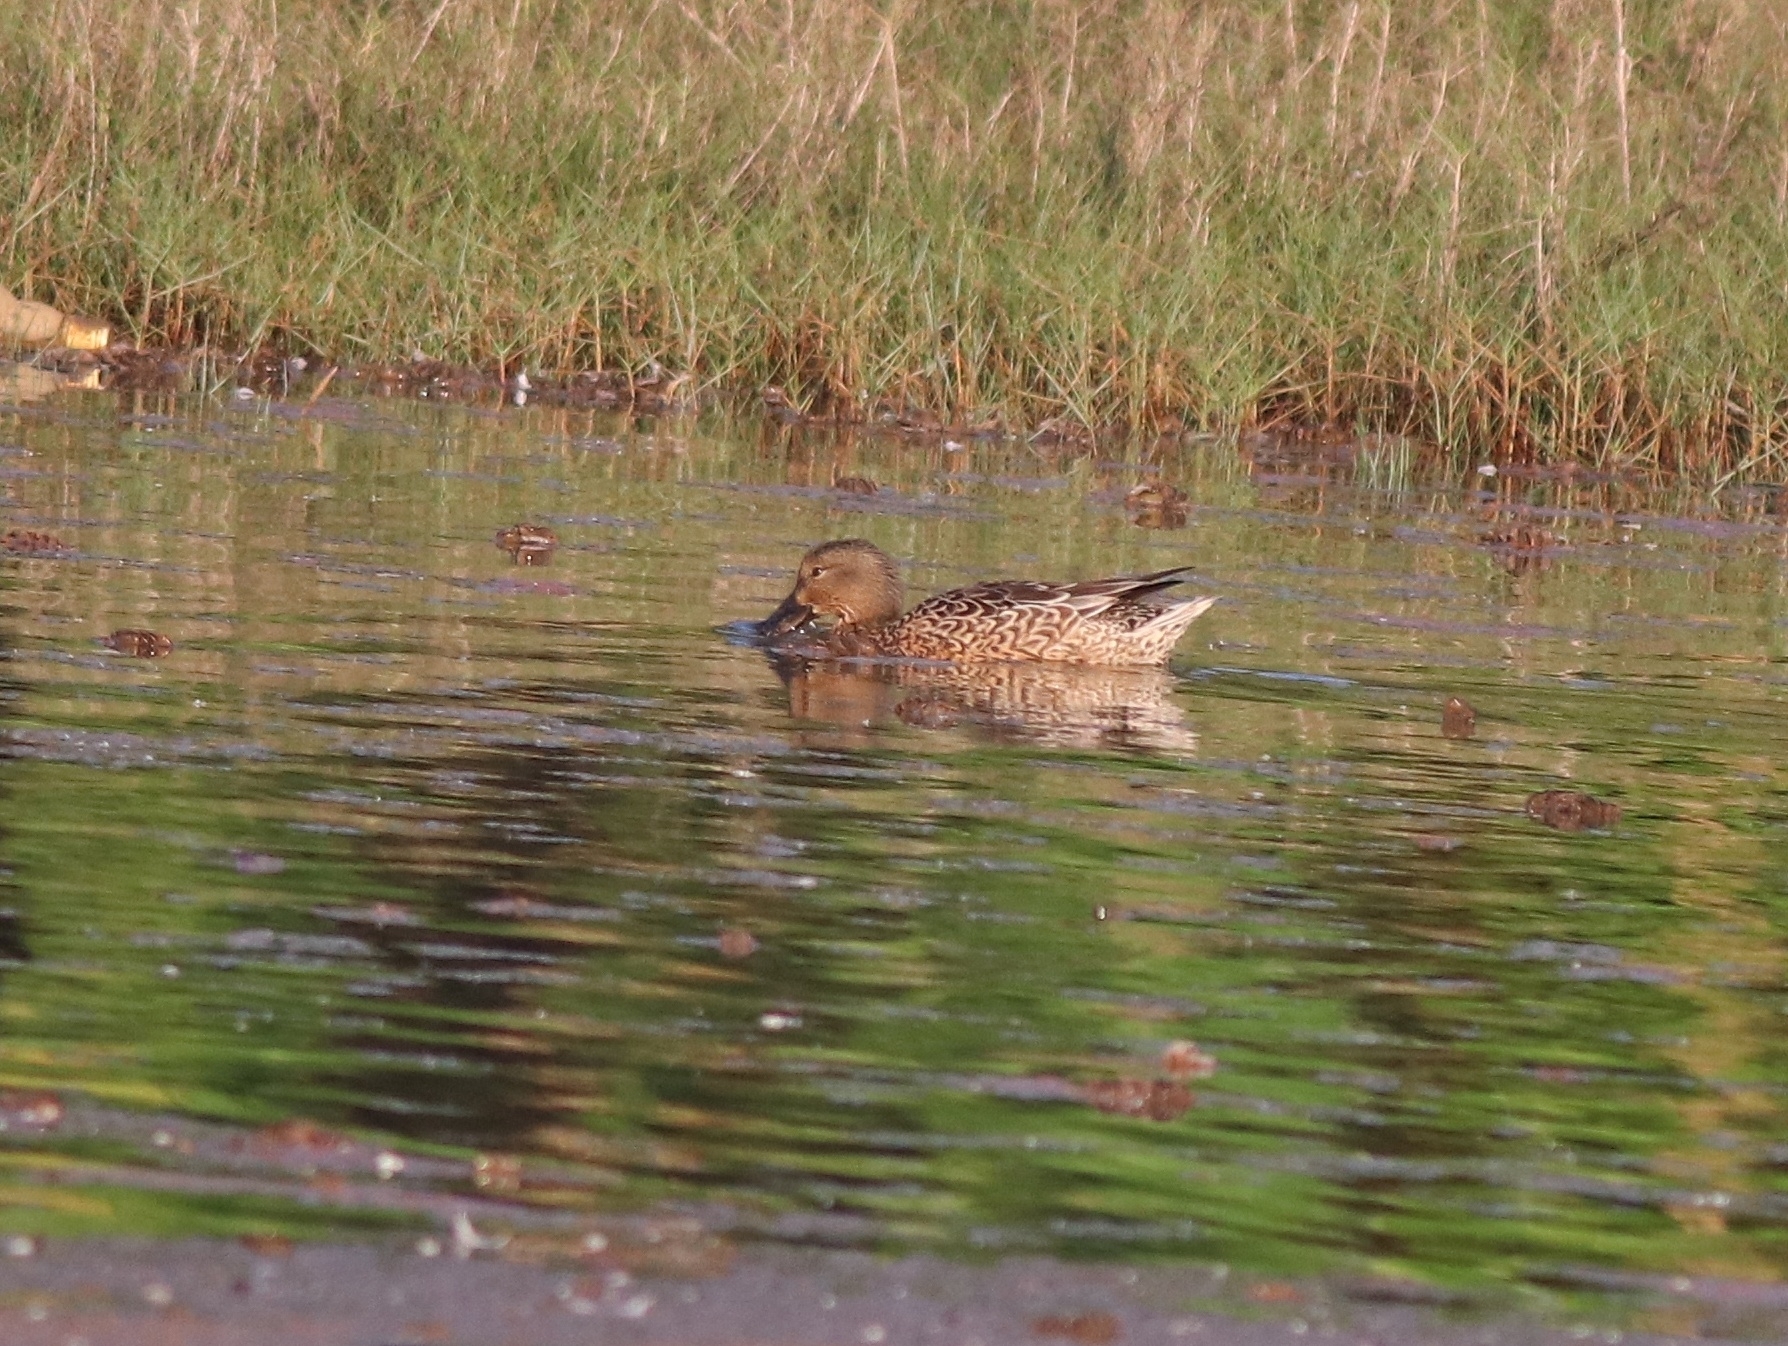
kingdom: Animalia
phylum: Chordata
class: Aves
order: Anseriformes
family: Anatidae
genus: Spatula
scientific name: Spatula clypeata
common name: Northern shoveler
